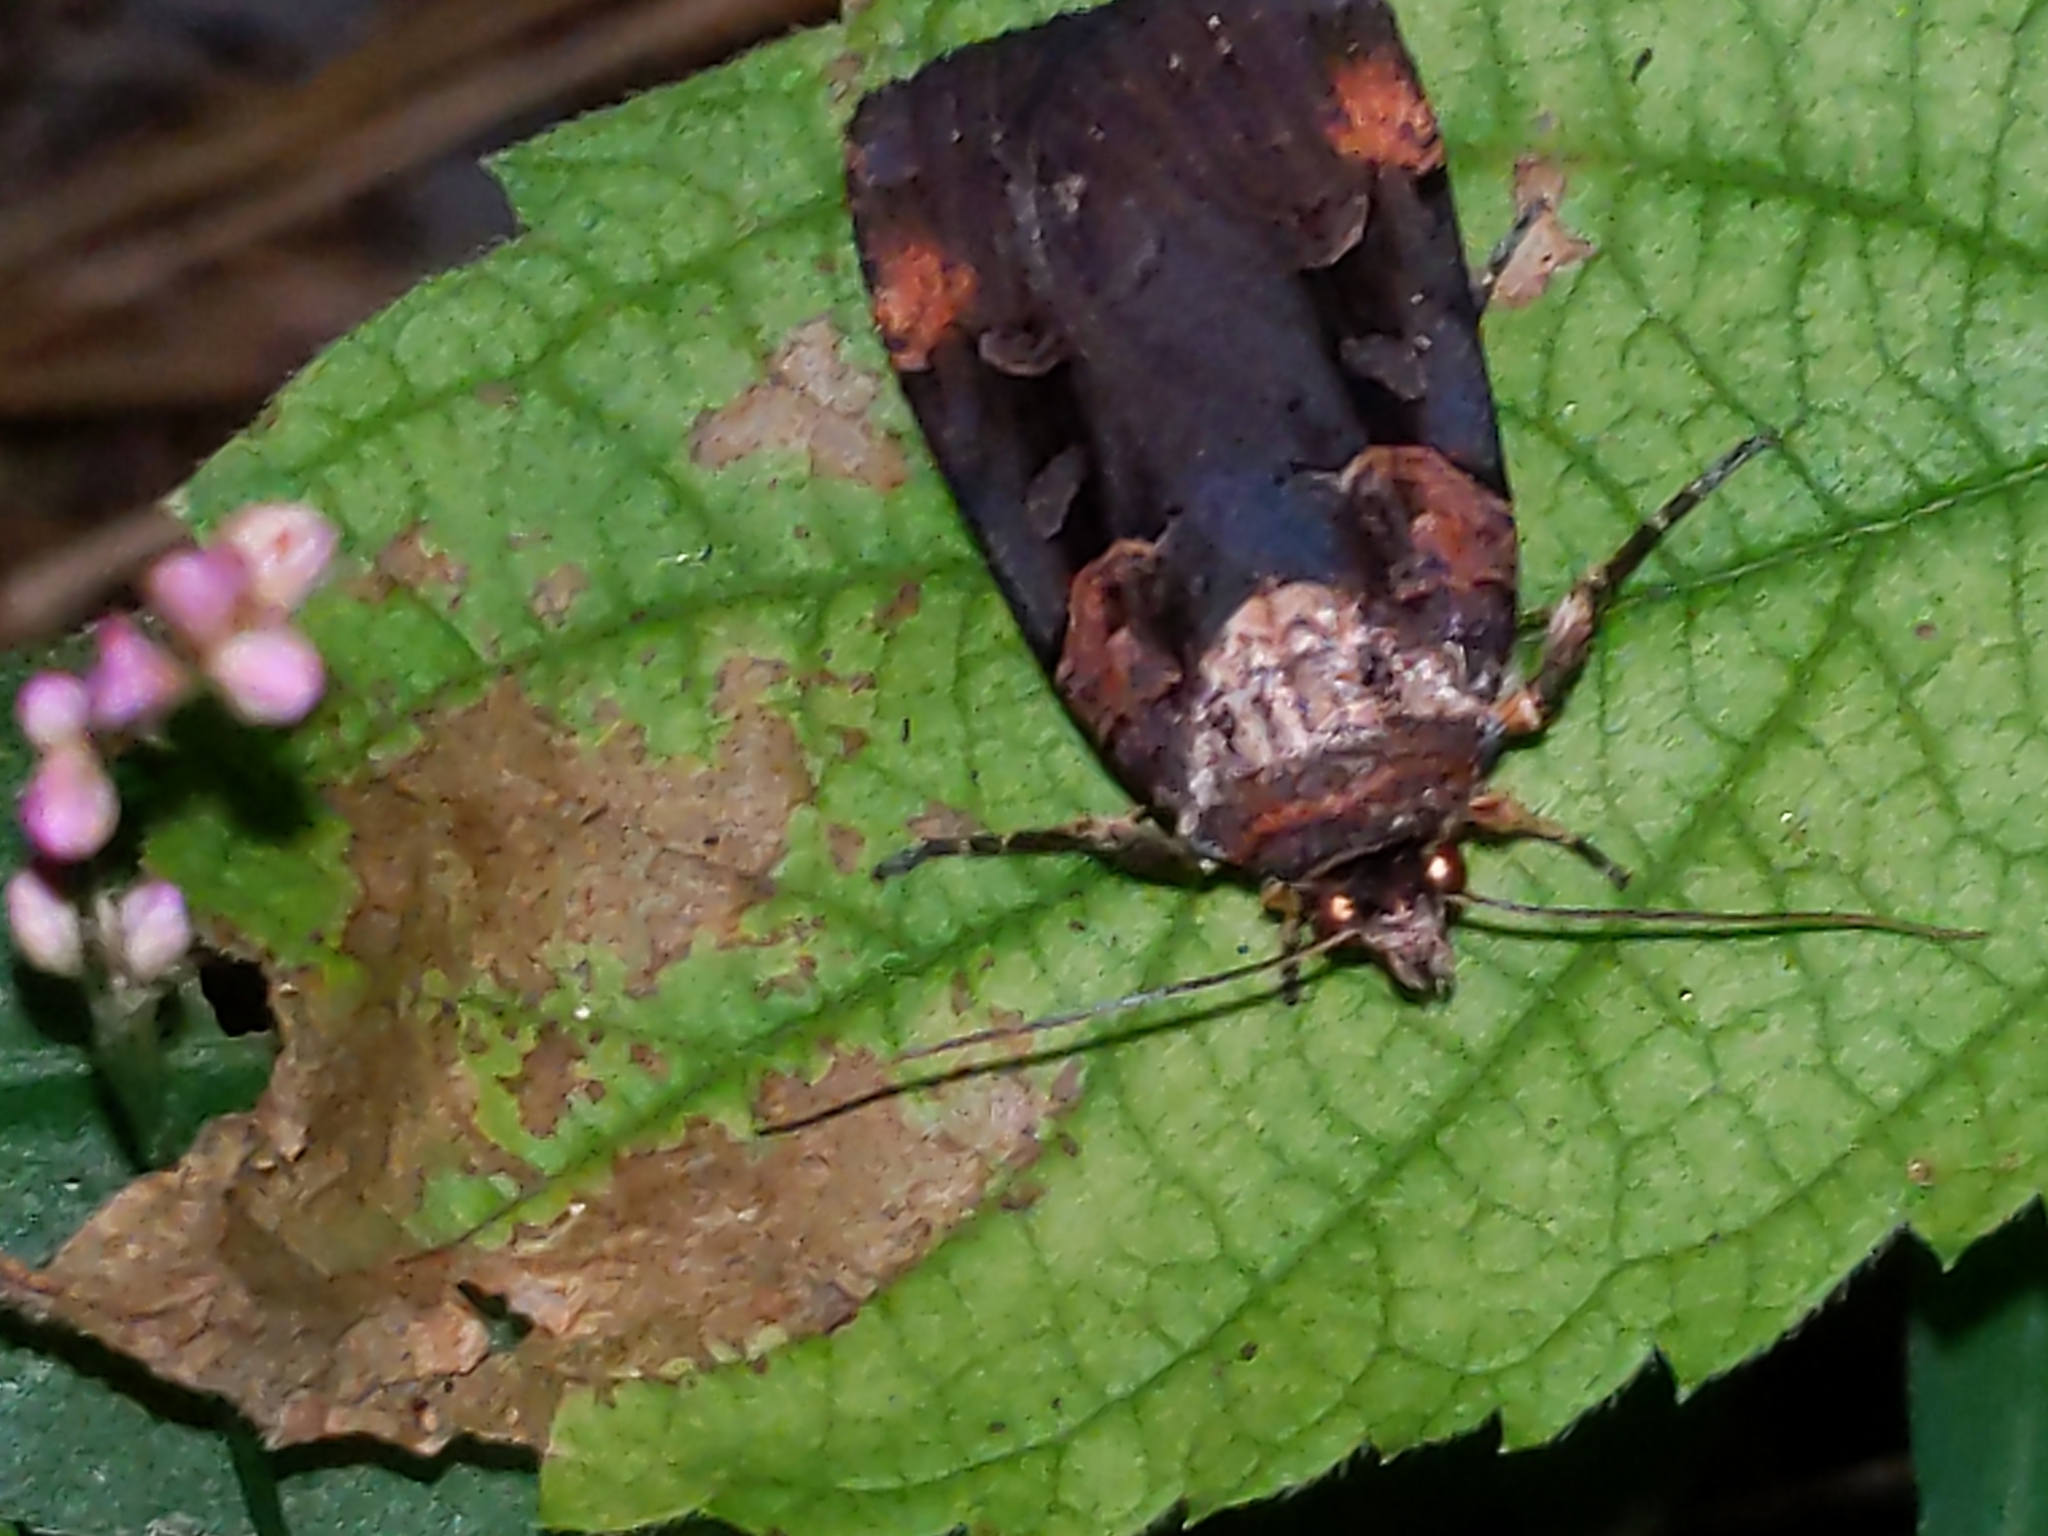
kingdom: Animalia
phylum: Arthropoda
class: Insecta
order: Lepidoptera
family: Noctuidae
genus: Pseudohermonassa
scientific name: Pseudohermonassa bicarnea
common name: Pink spotted dart
